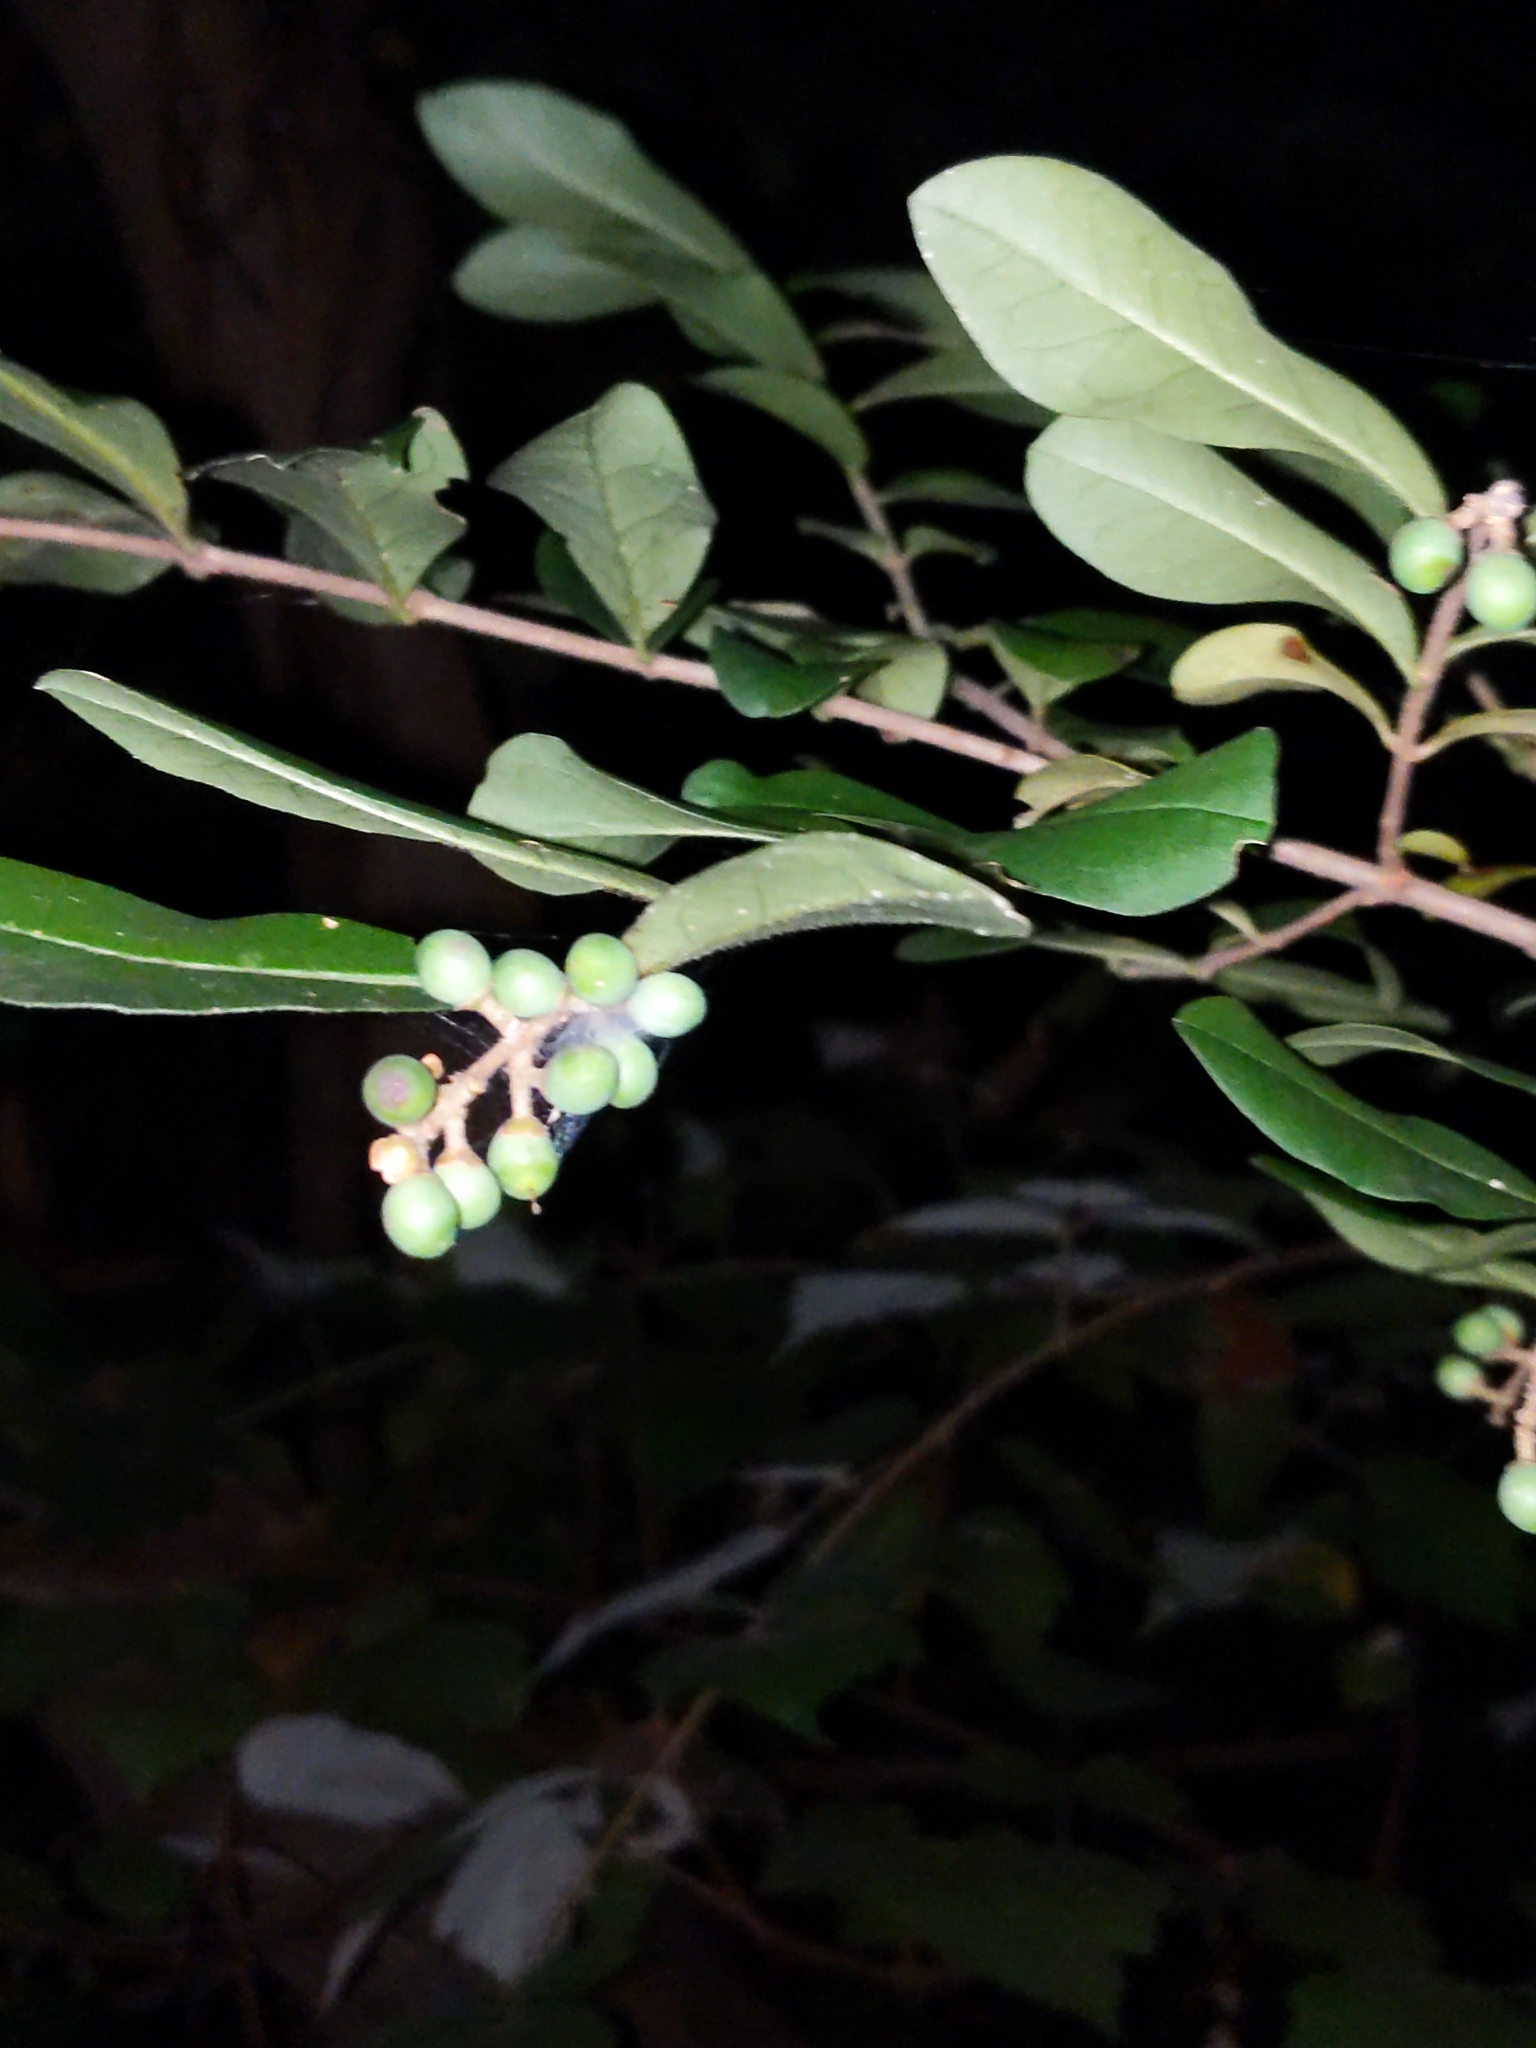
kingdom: Plantae
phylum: Tracheophyta
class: Magnoliopsida
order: Lamiales
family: Oleaceae
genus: Ligustrum
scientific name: Ligustrum obtusifolium
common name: Border privet
